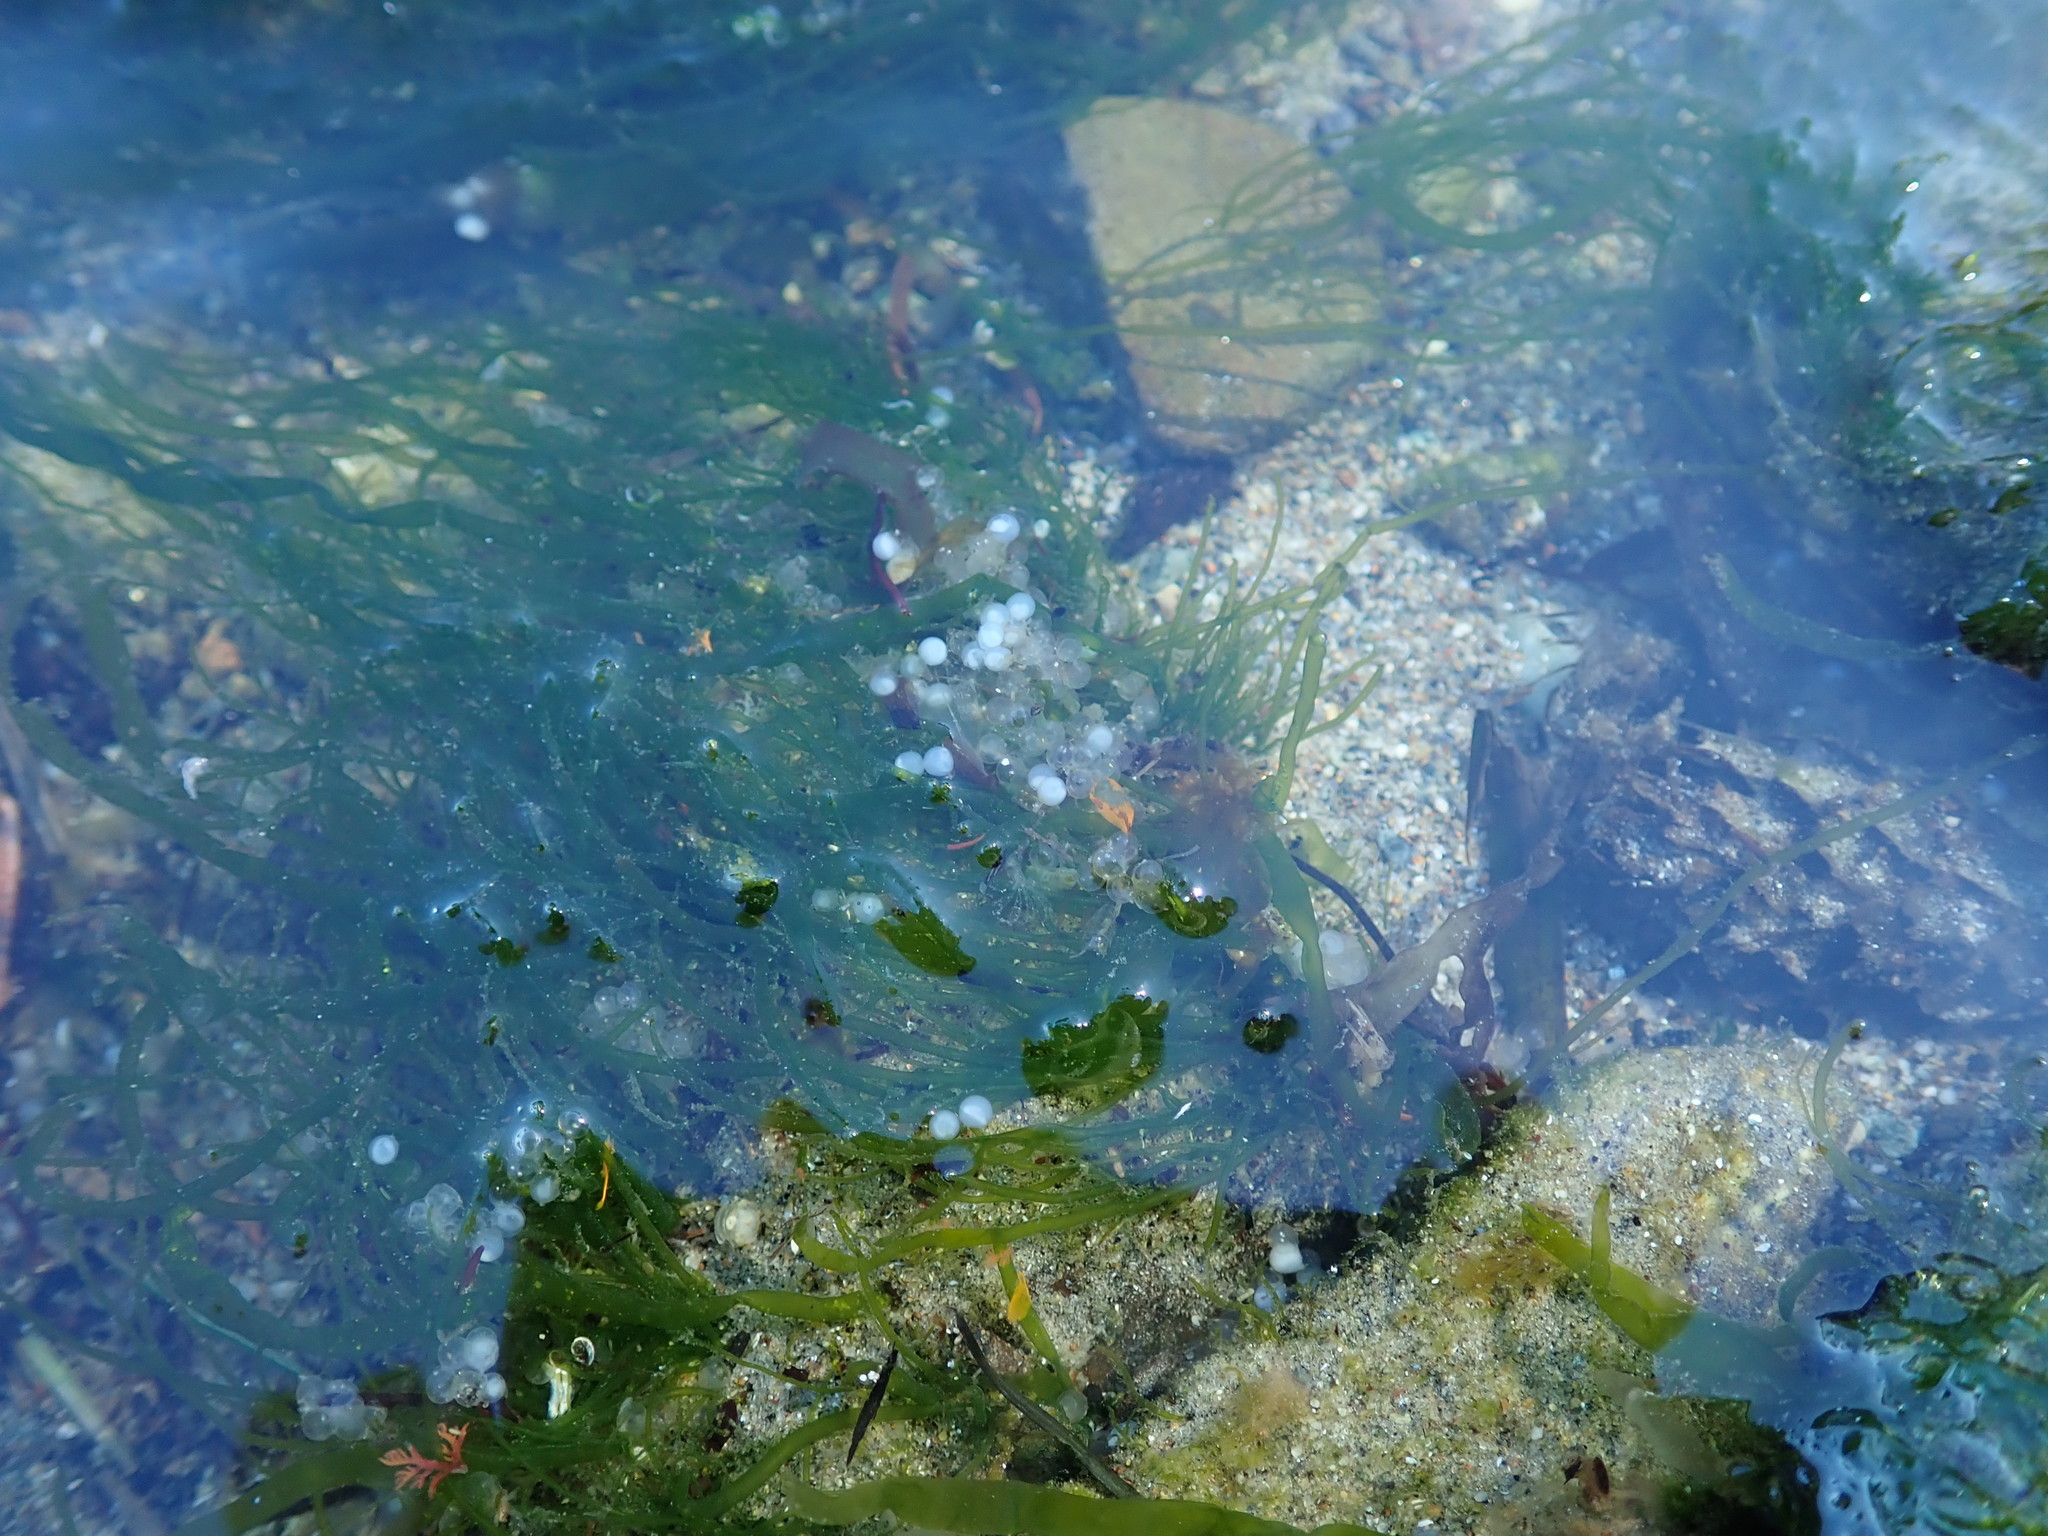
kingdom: Animalia
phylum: Chordata
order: Clupeiformes
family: Clupeidae
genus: Clupea
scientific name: Clupea pallasii
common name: Pacific herring
